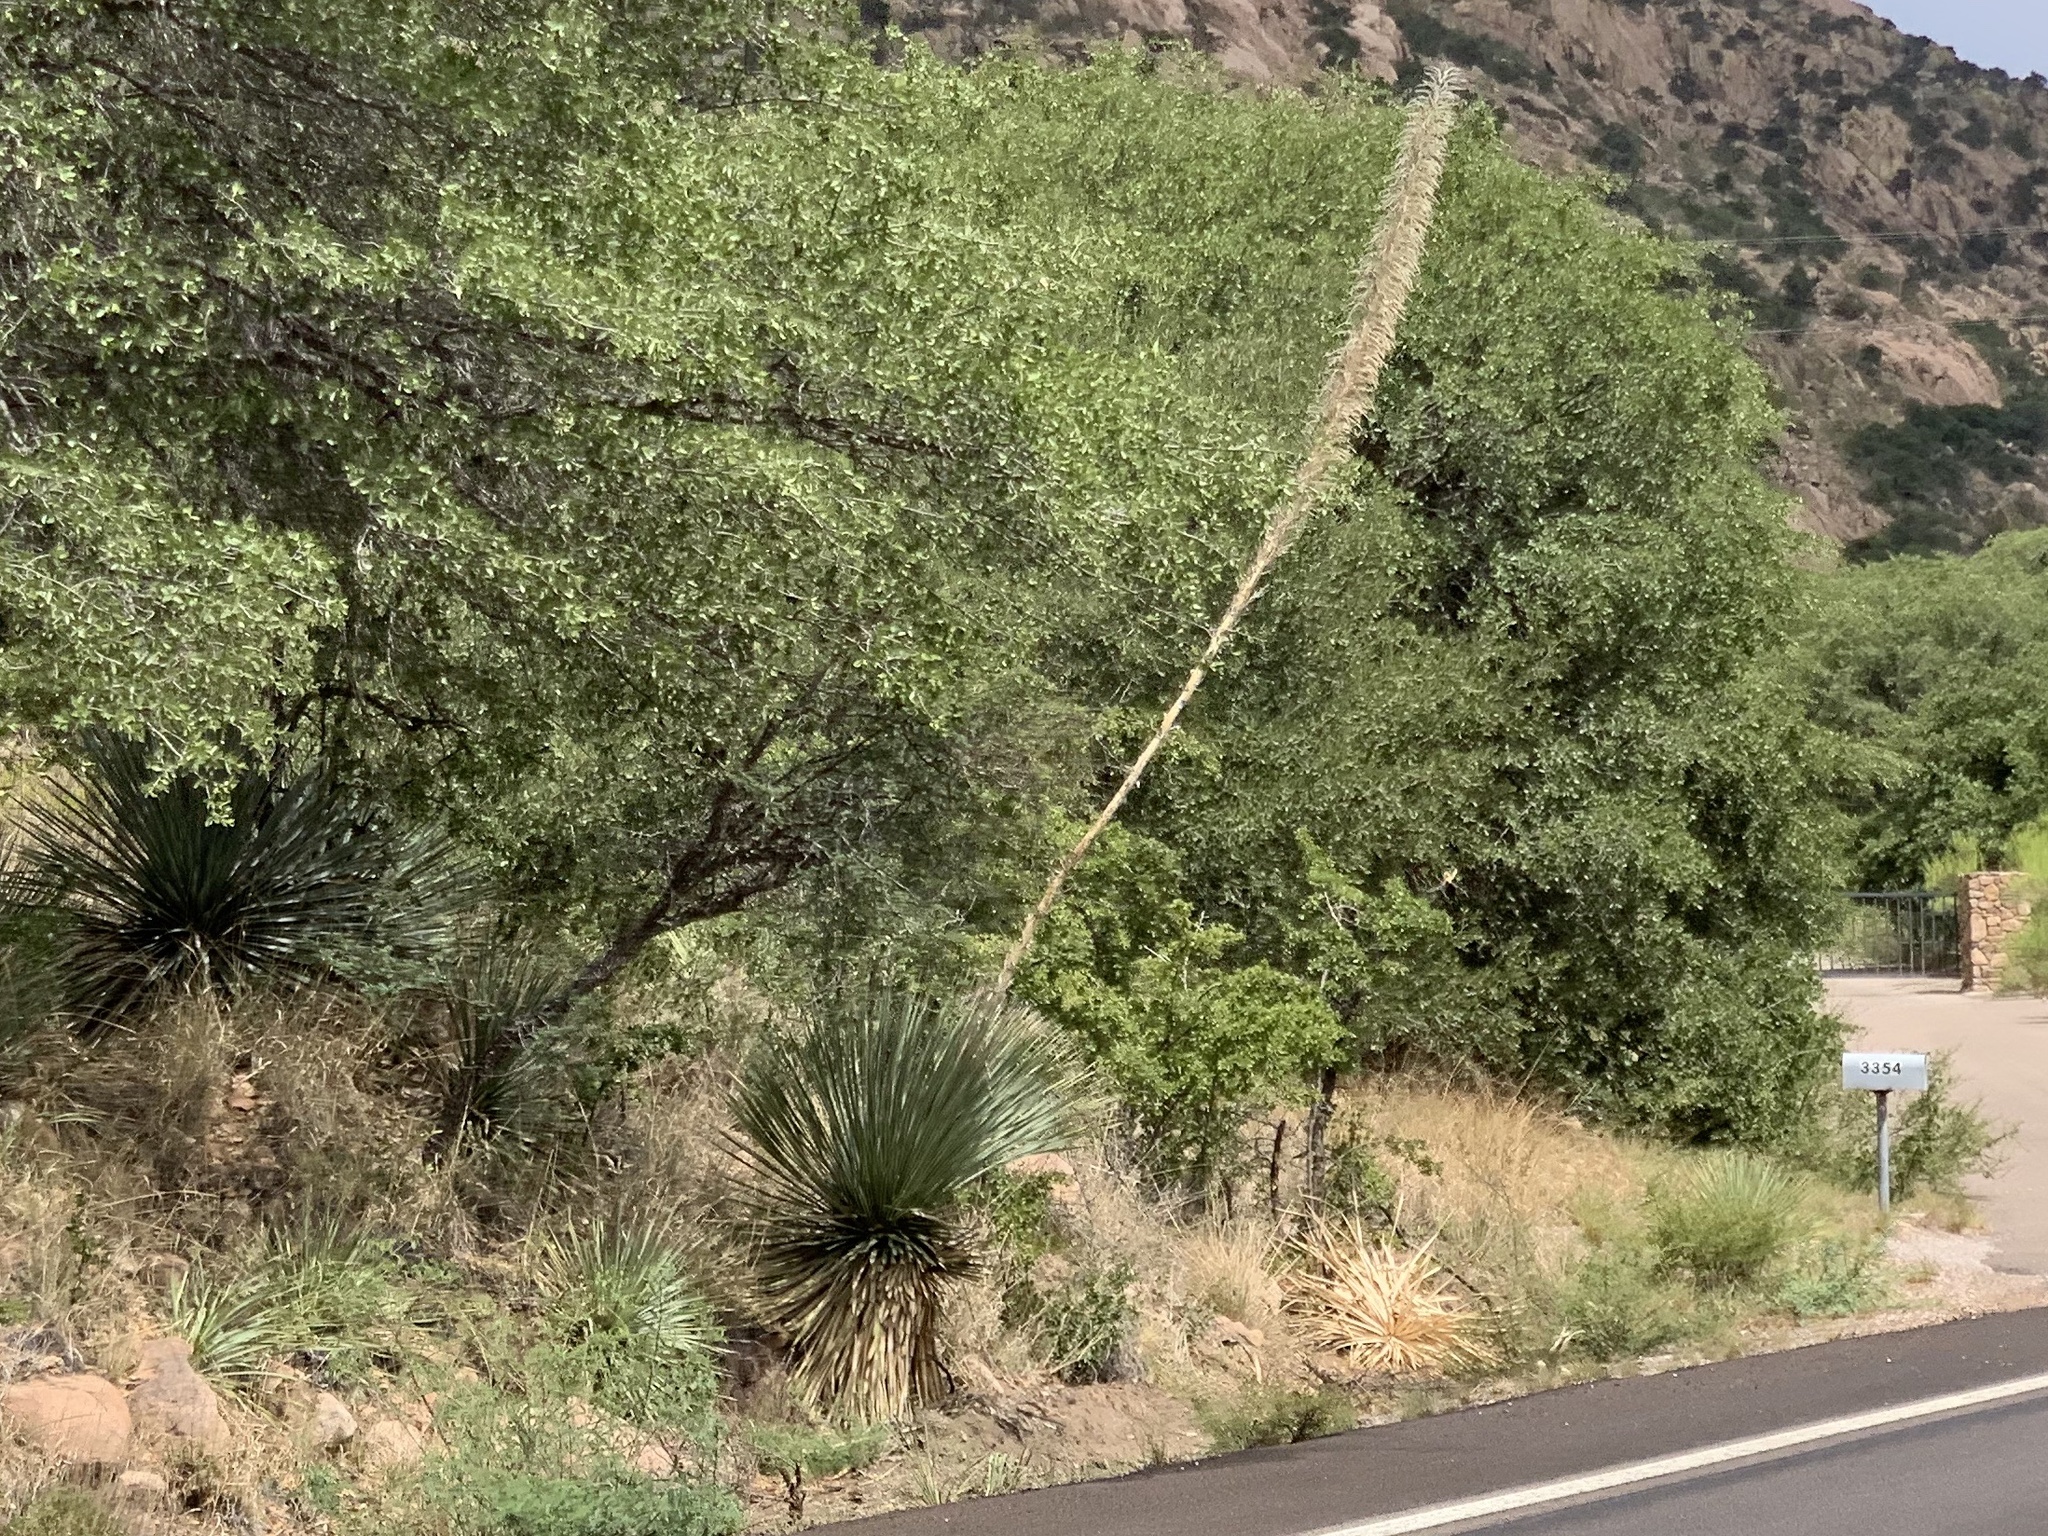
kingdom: Plantae
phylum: Tracheophyta
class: Liliopsida
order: Asparagales
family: Asparagaceae
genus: Dasylirion
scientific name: Dasylirion wheeleri
